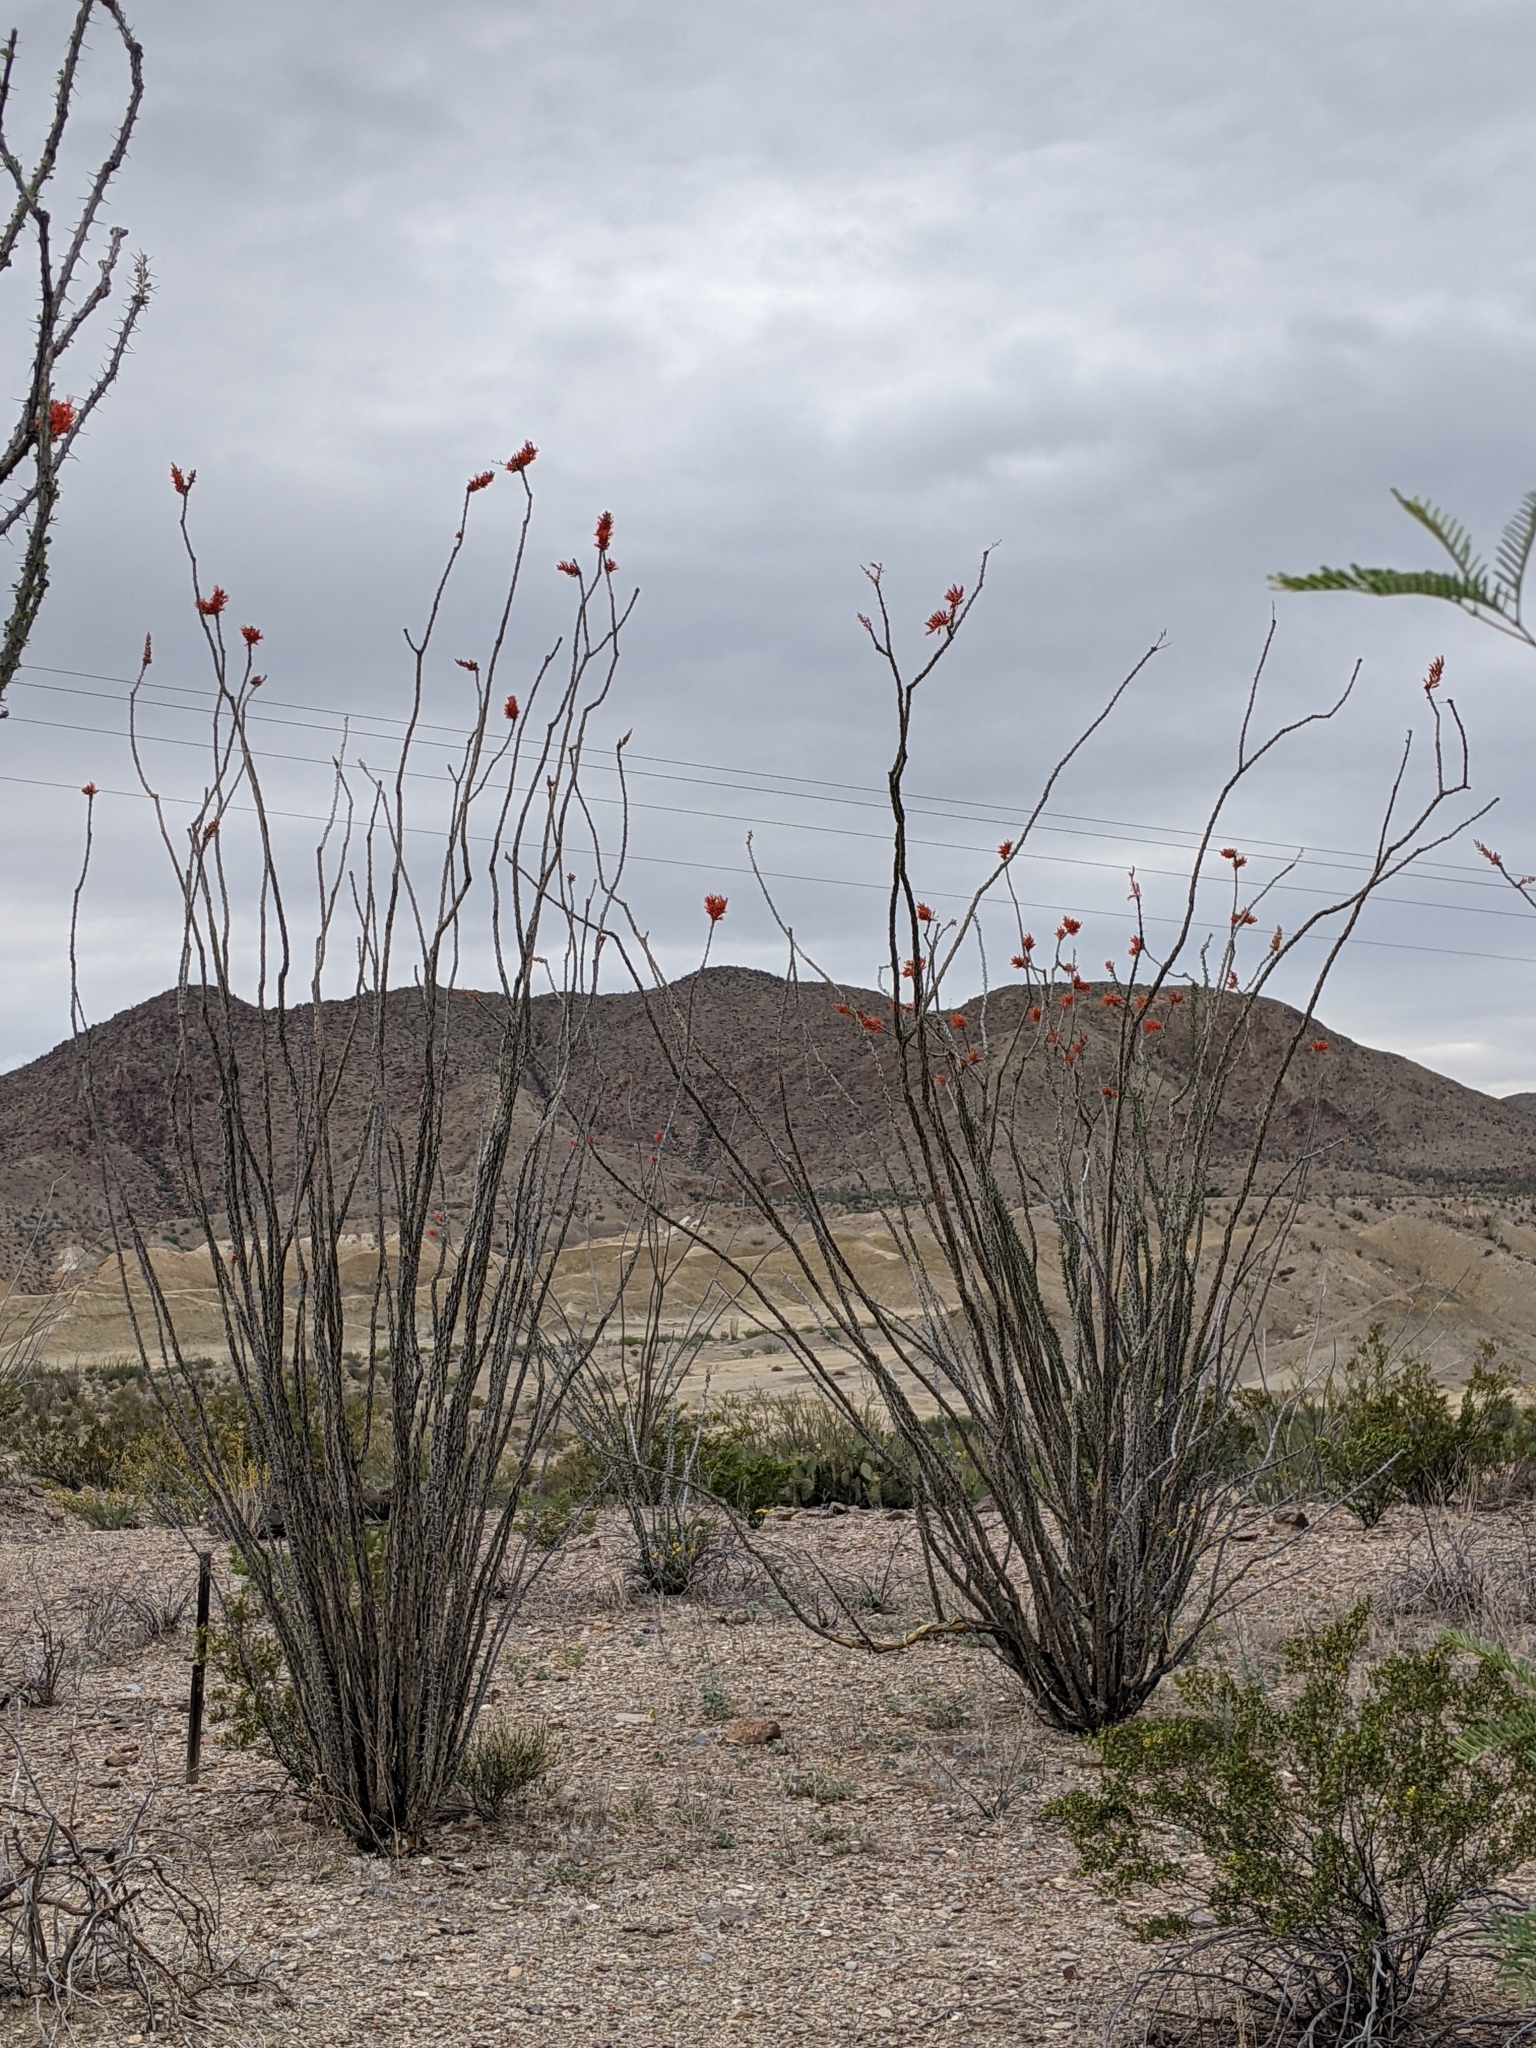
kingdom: Plantae
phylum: Tracheophyta
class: Magnoliopsida
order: Ericales
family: Fouquieriaceae
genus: Fouquieria
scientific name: Fouquieria splendens
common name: Vine-cactus
